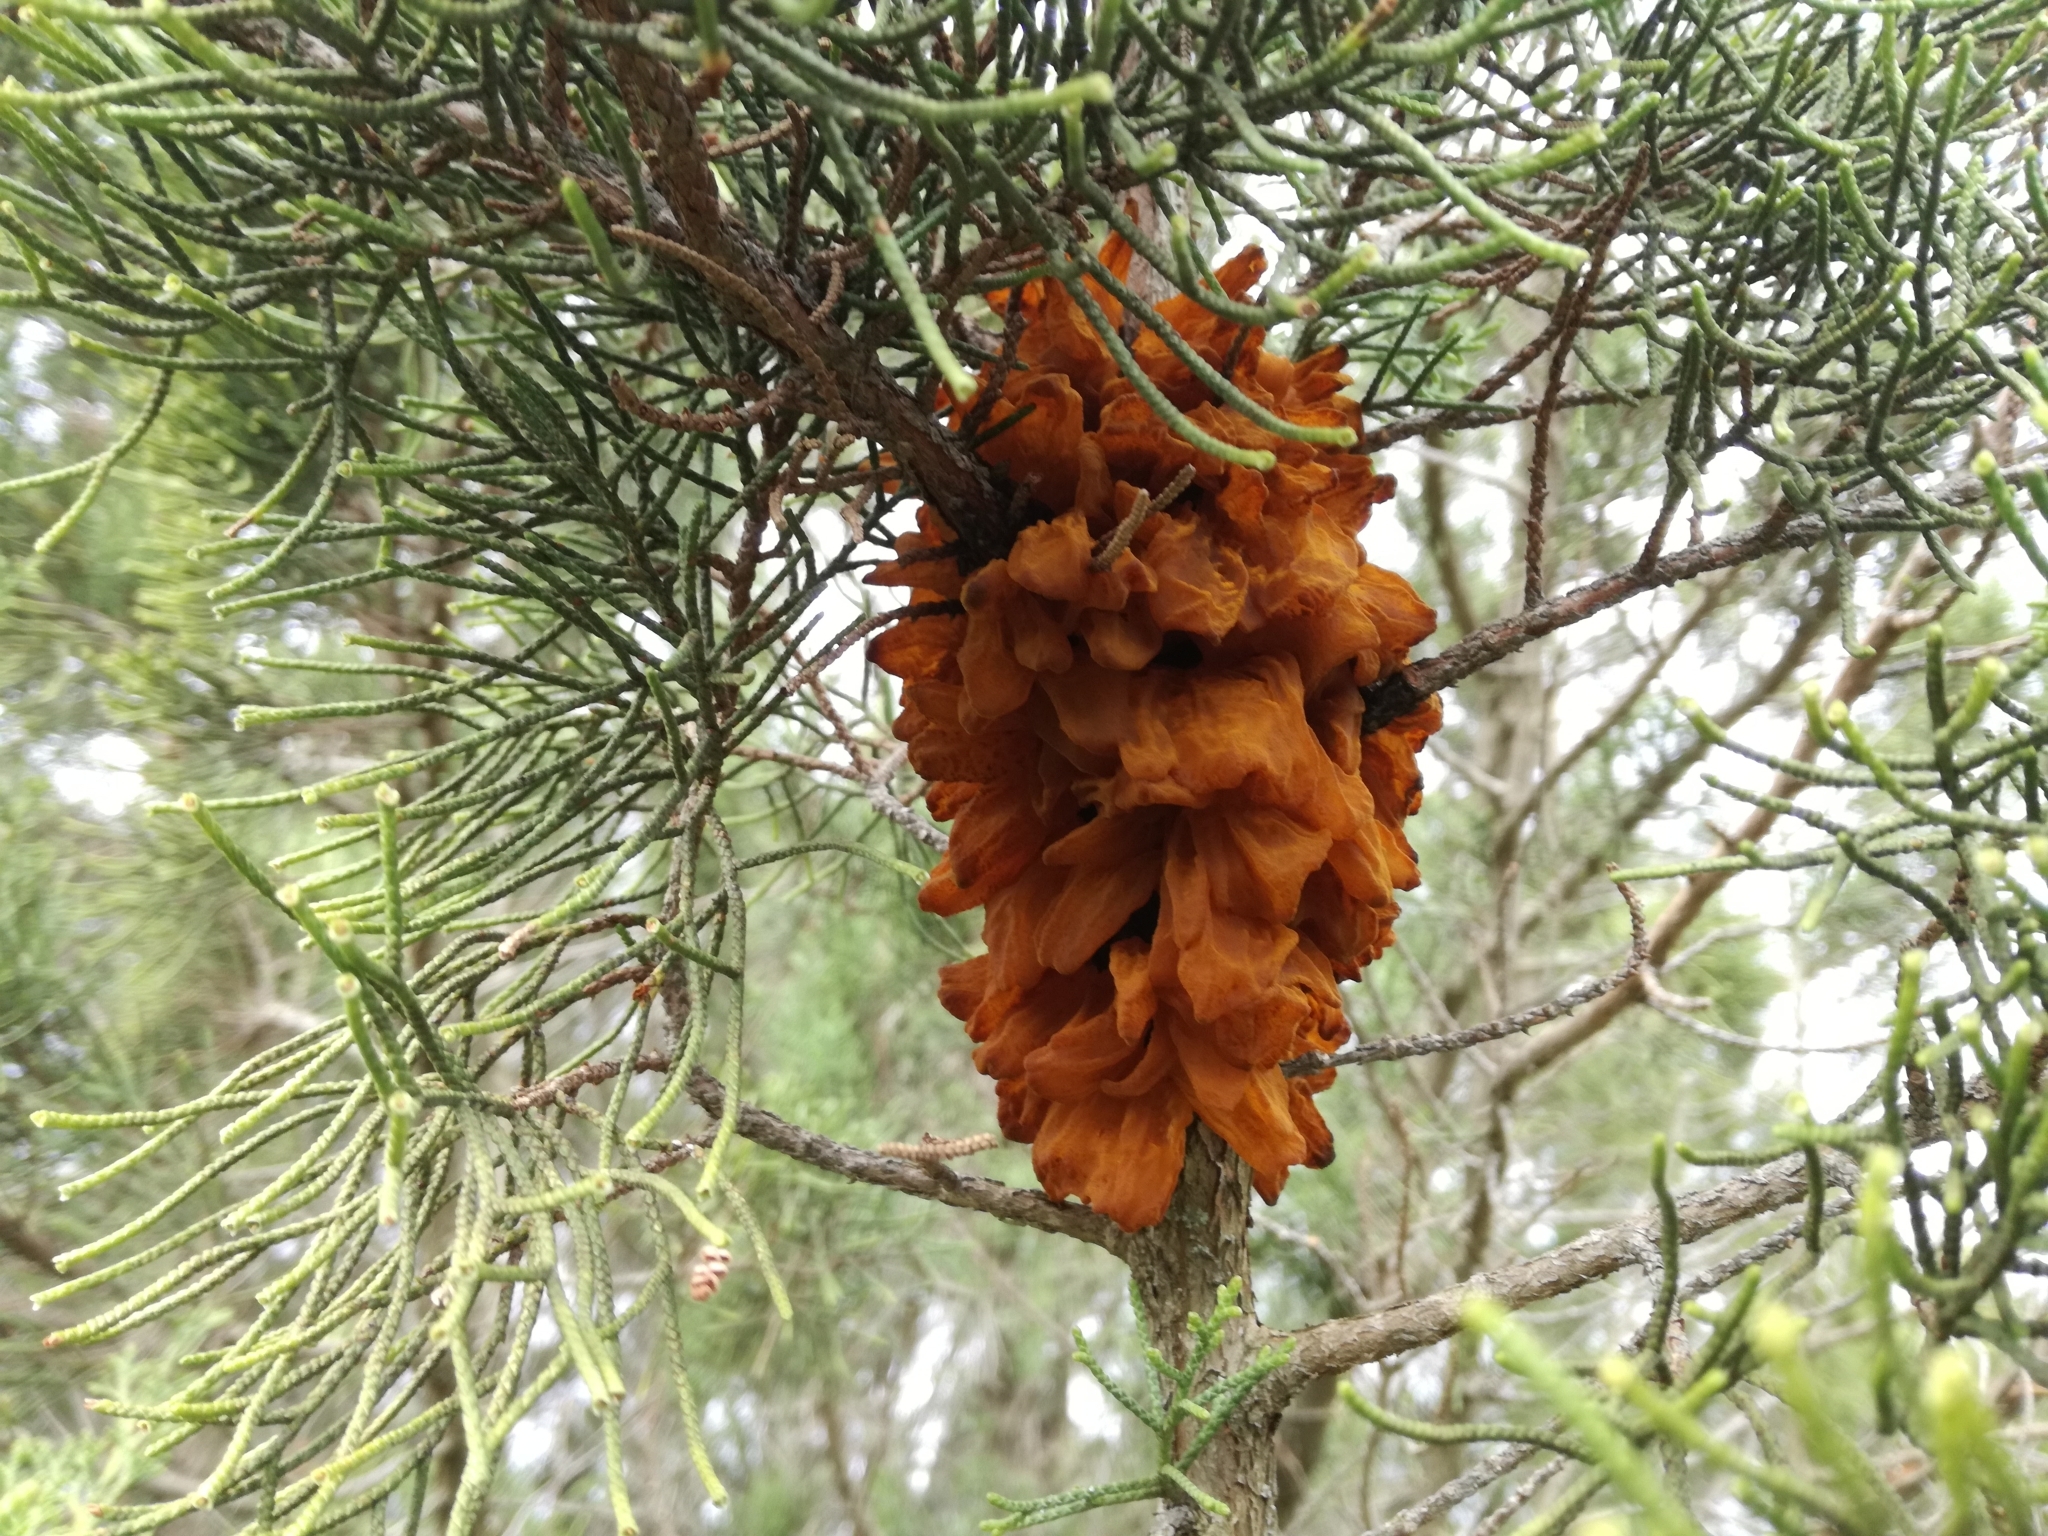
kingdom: Fungi
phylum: Basidiomycota
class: Pucciniomycetes
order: Pucciniales
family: Gymnosporangiaceae
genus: Gymnosporangium
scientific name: Gymnosporangium sabinae
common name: Pear trellis rust fungus
